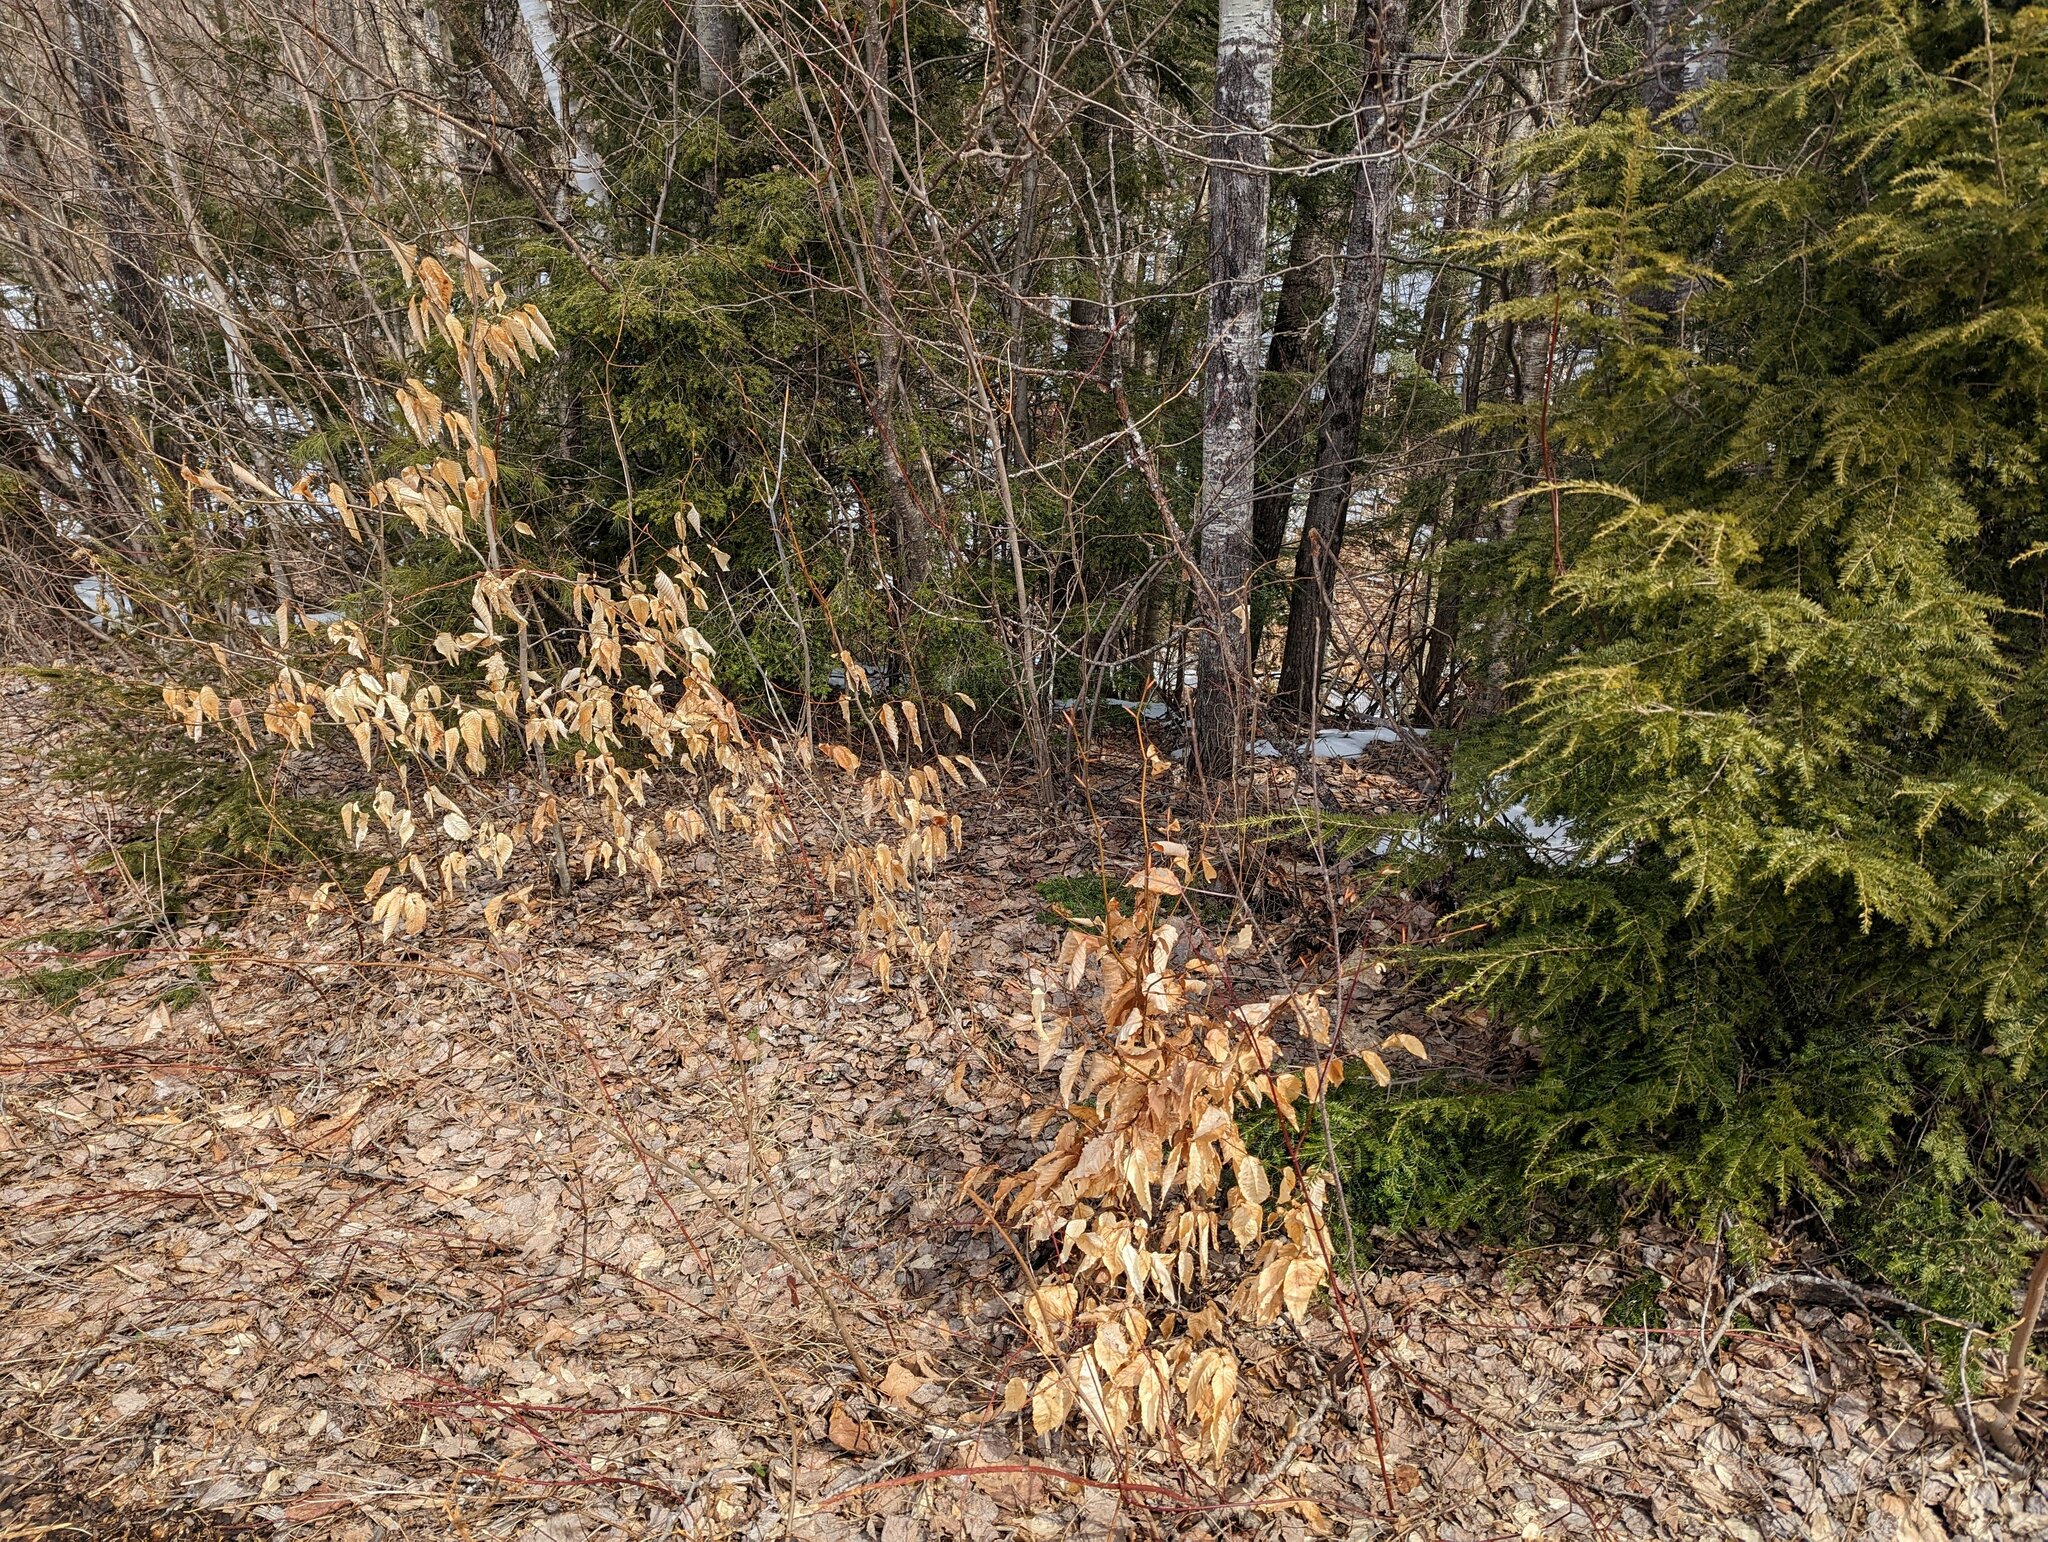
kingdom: Plantae
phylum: Tracheophyta
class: Magnoliopsida
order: Fagales
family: Fagaceae
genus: Fagus
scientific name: Fagus grandifolia
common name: American beech
